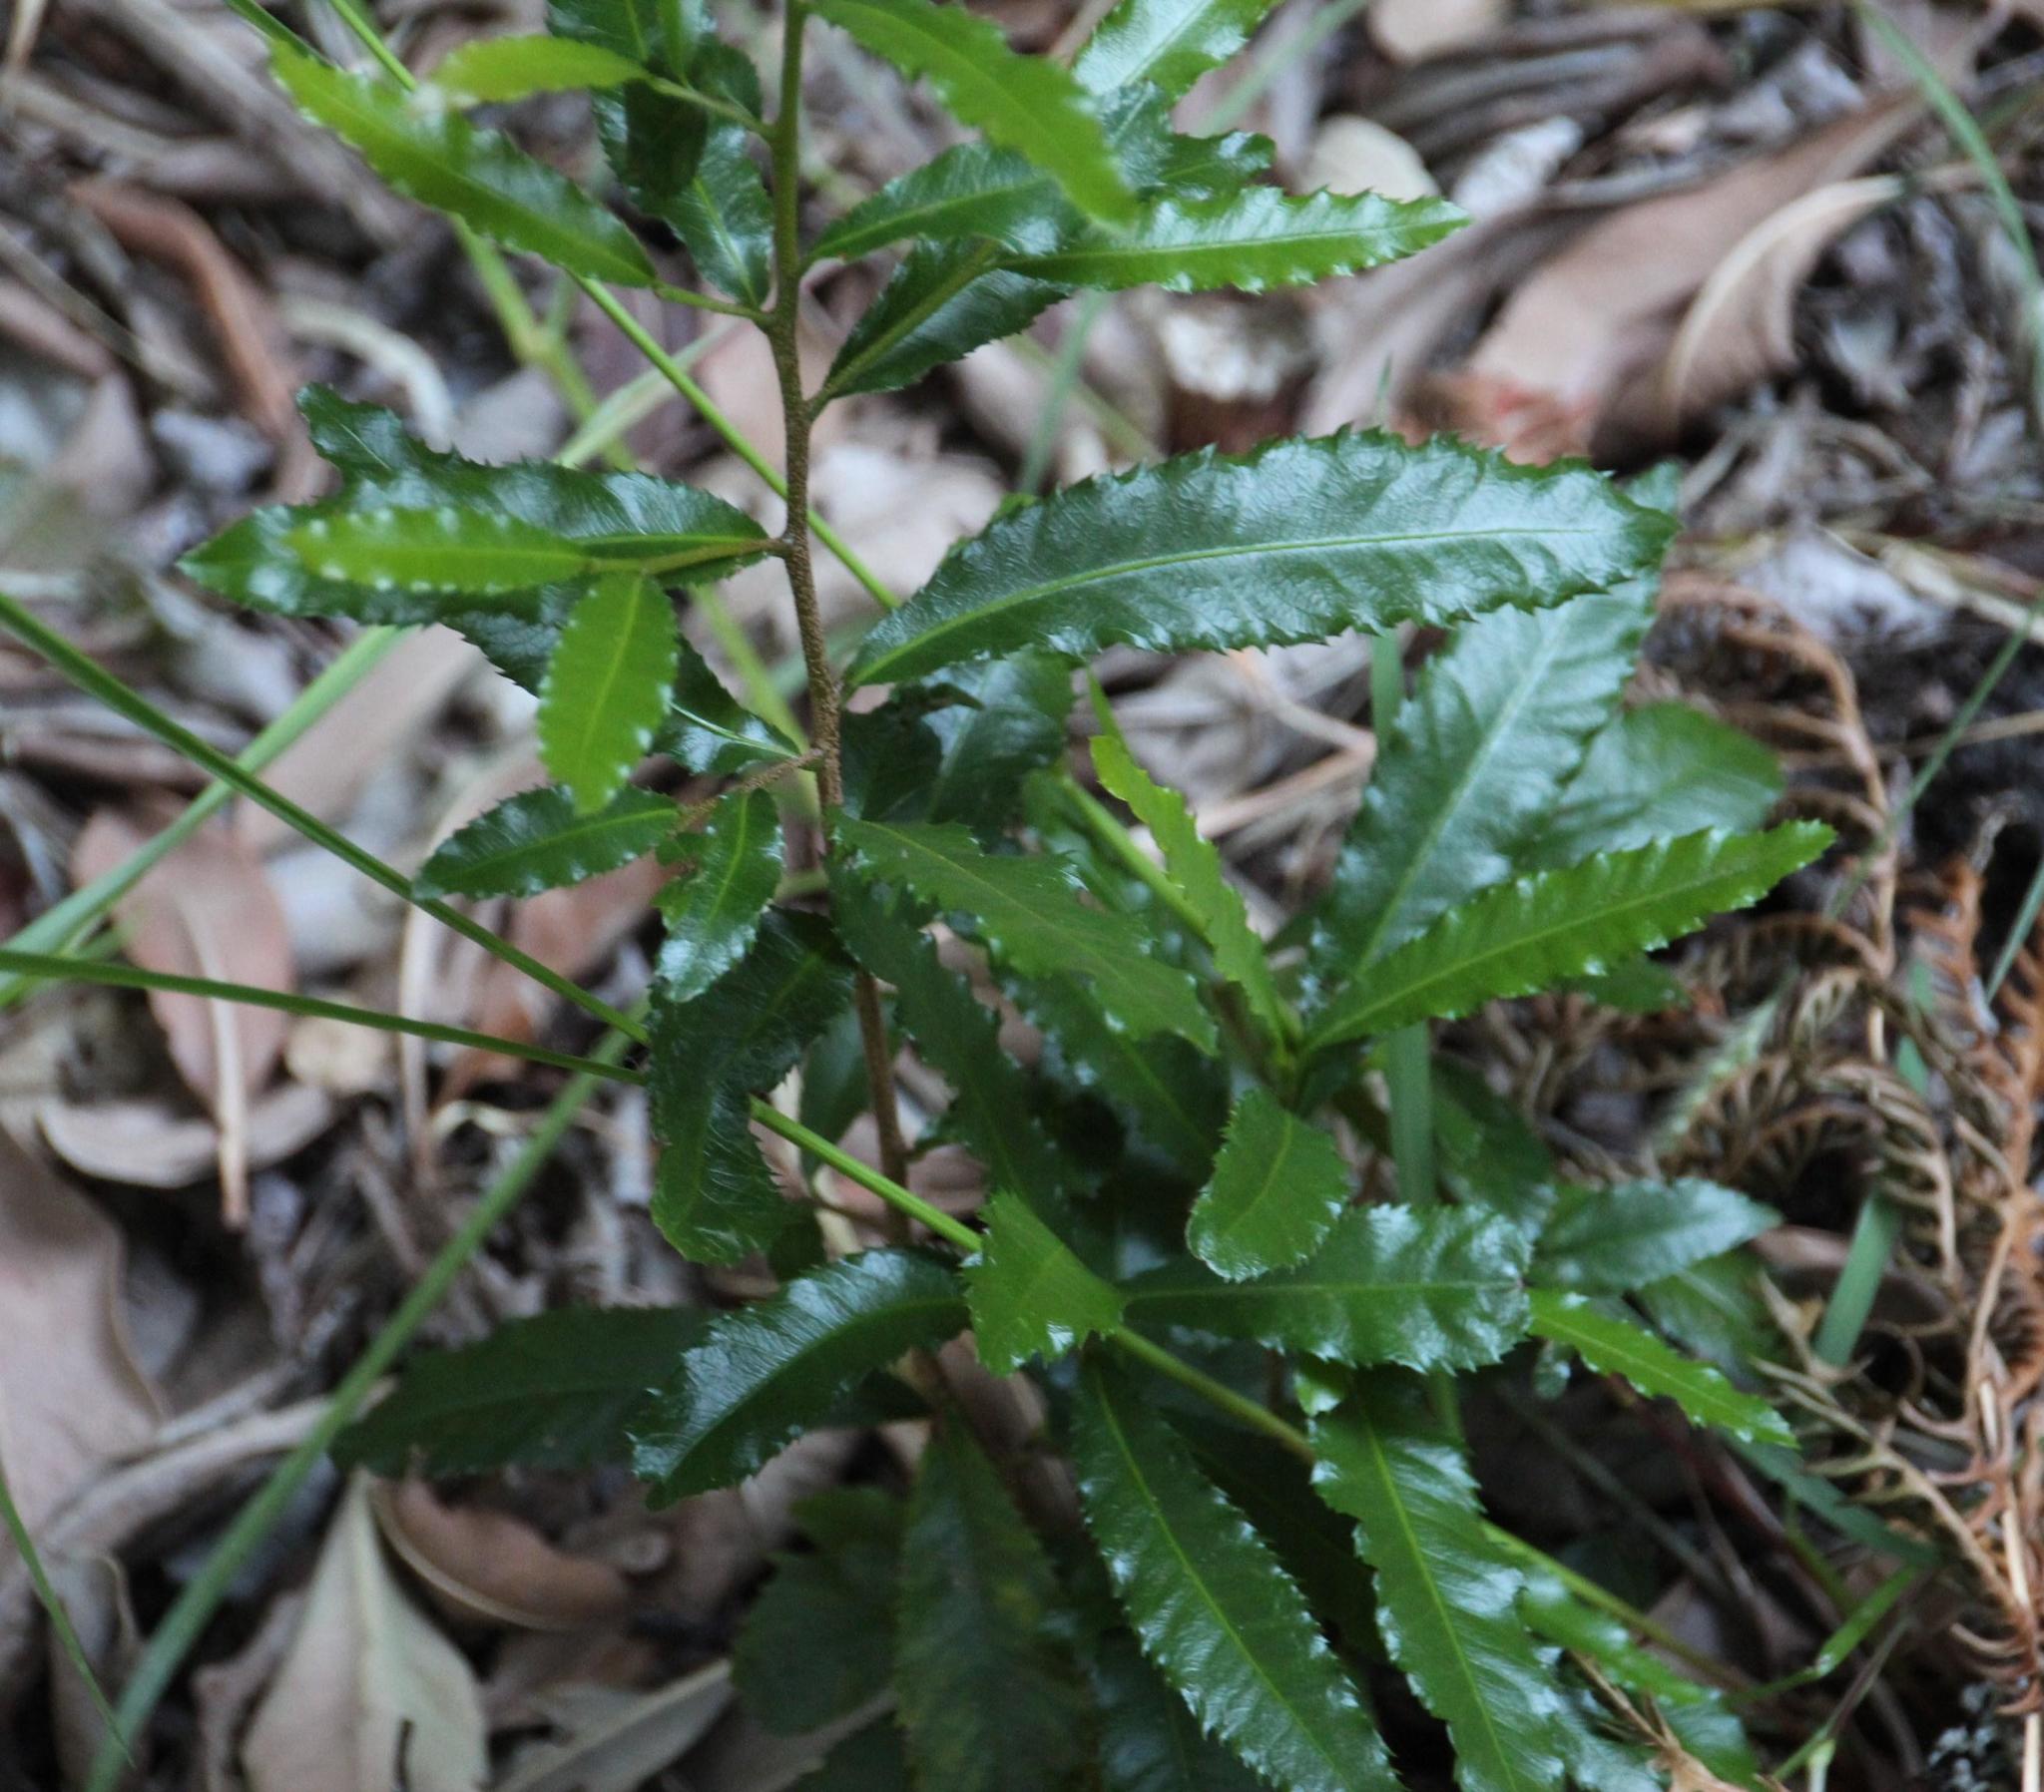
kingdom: Plantae
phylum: Tracheophyta
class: Magnoliopsida
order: Malpighiales
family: Ochnaceae
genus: Ochna
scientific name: Ochna serrulata
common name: Mickey mouse plant
